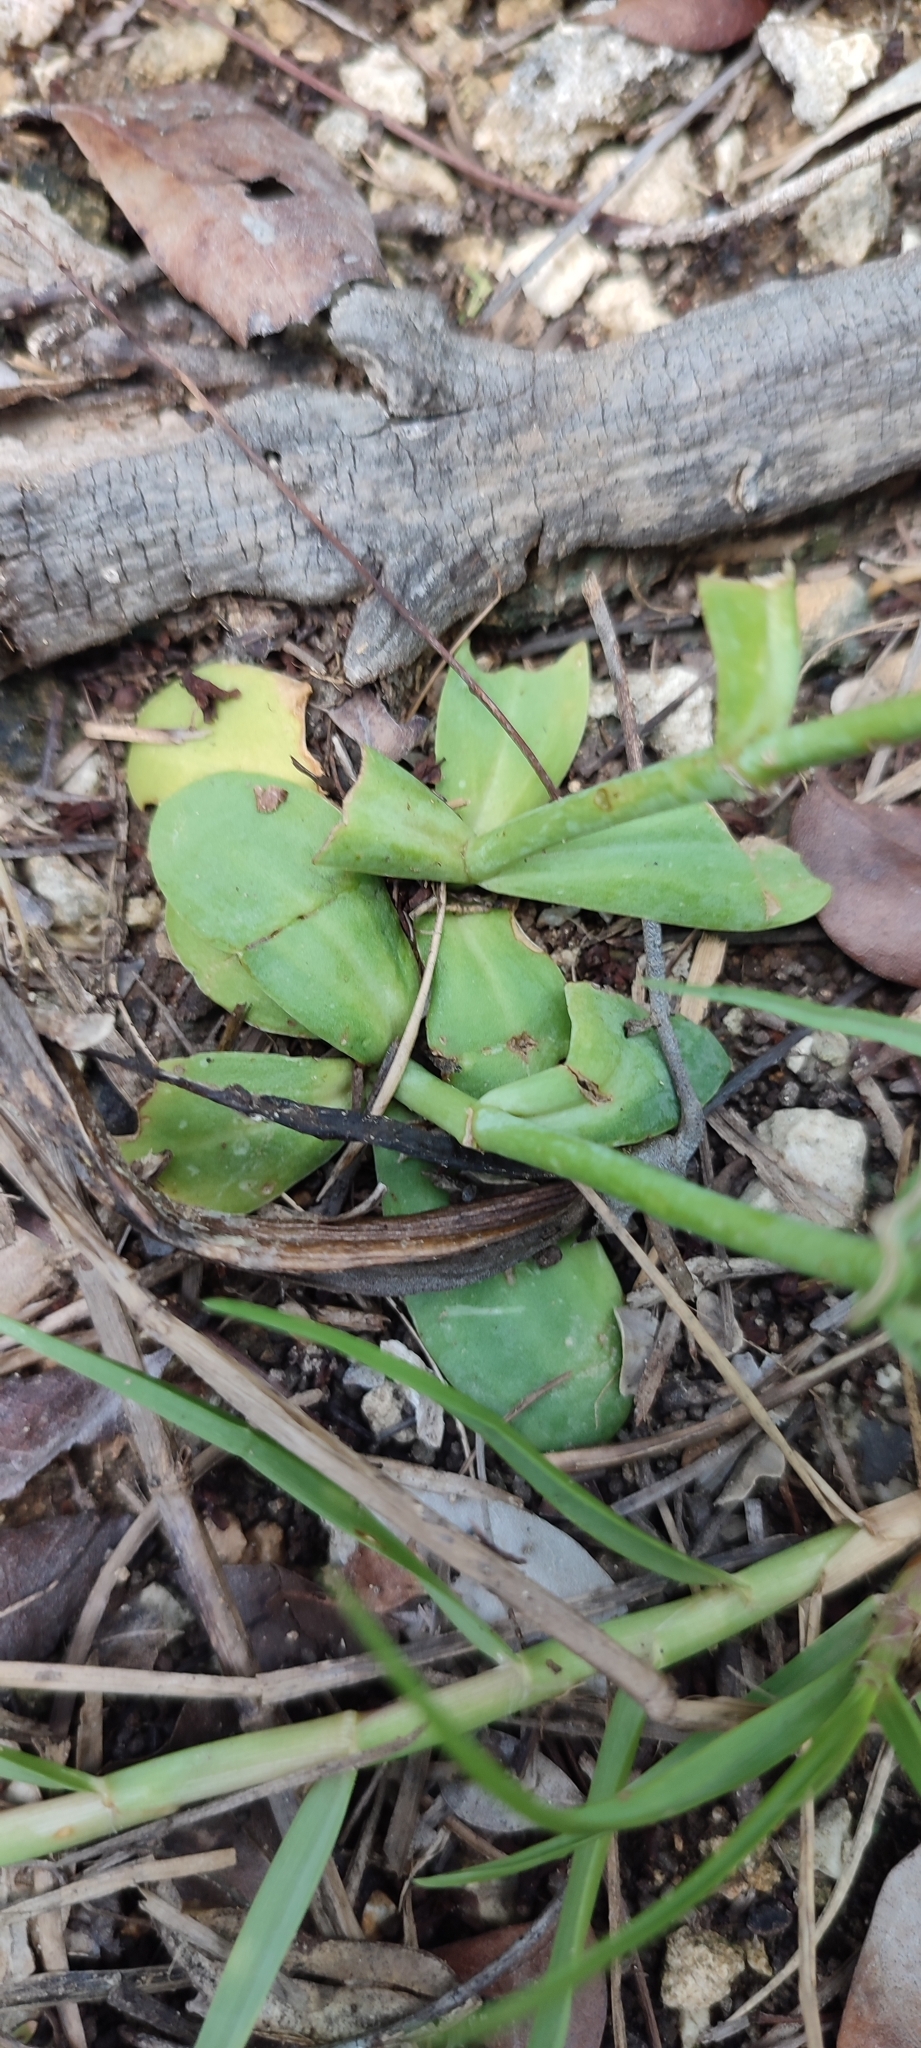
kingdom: Plantae
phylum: Tracheophyta
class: Magnoliopsida
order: Gentianales
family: Gentianaceae
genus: Eustoma
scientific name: Eustoma exaltatum
